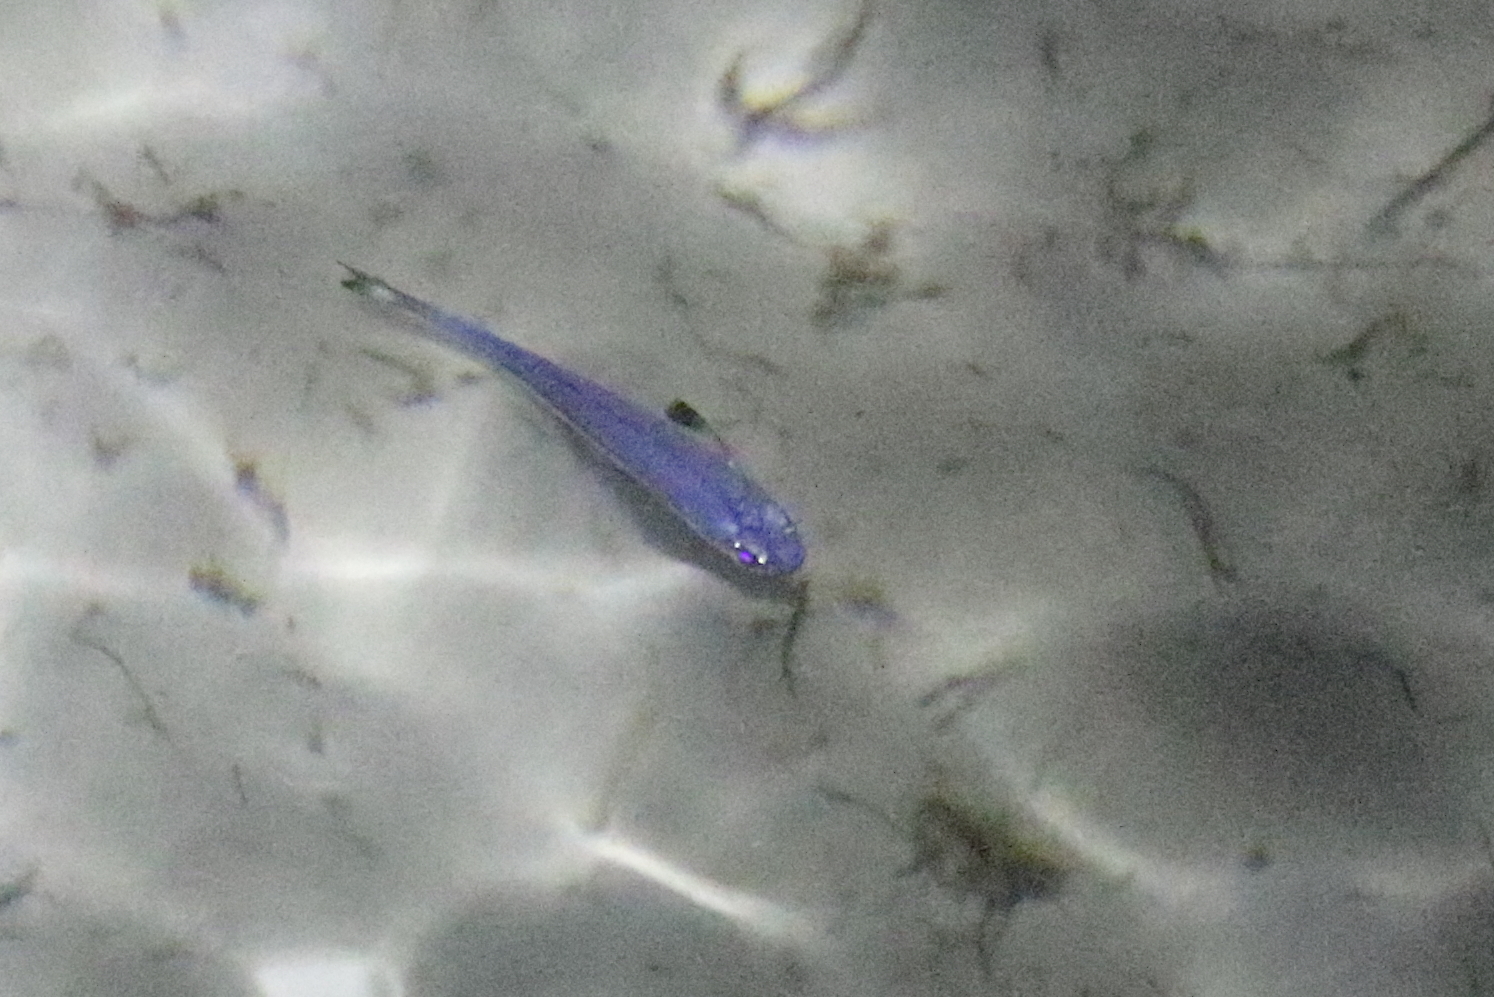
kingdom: Animalia
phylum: Chordata
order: Atheriniformes
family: Atherinidae
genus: Atherinomorus
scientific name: Atherinomorus vaigiensis
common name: Ogilby's silverside
